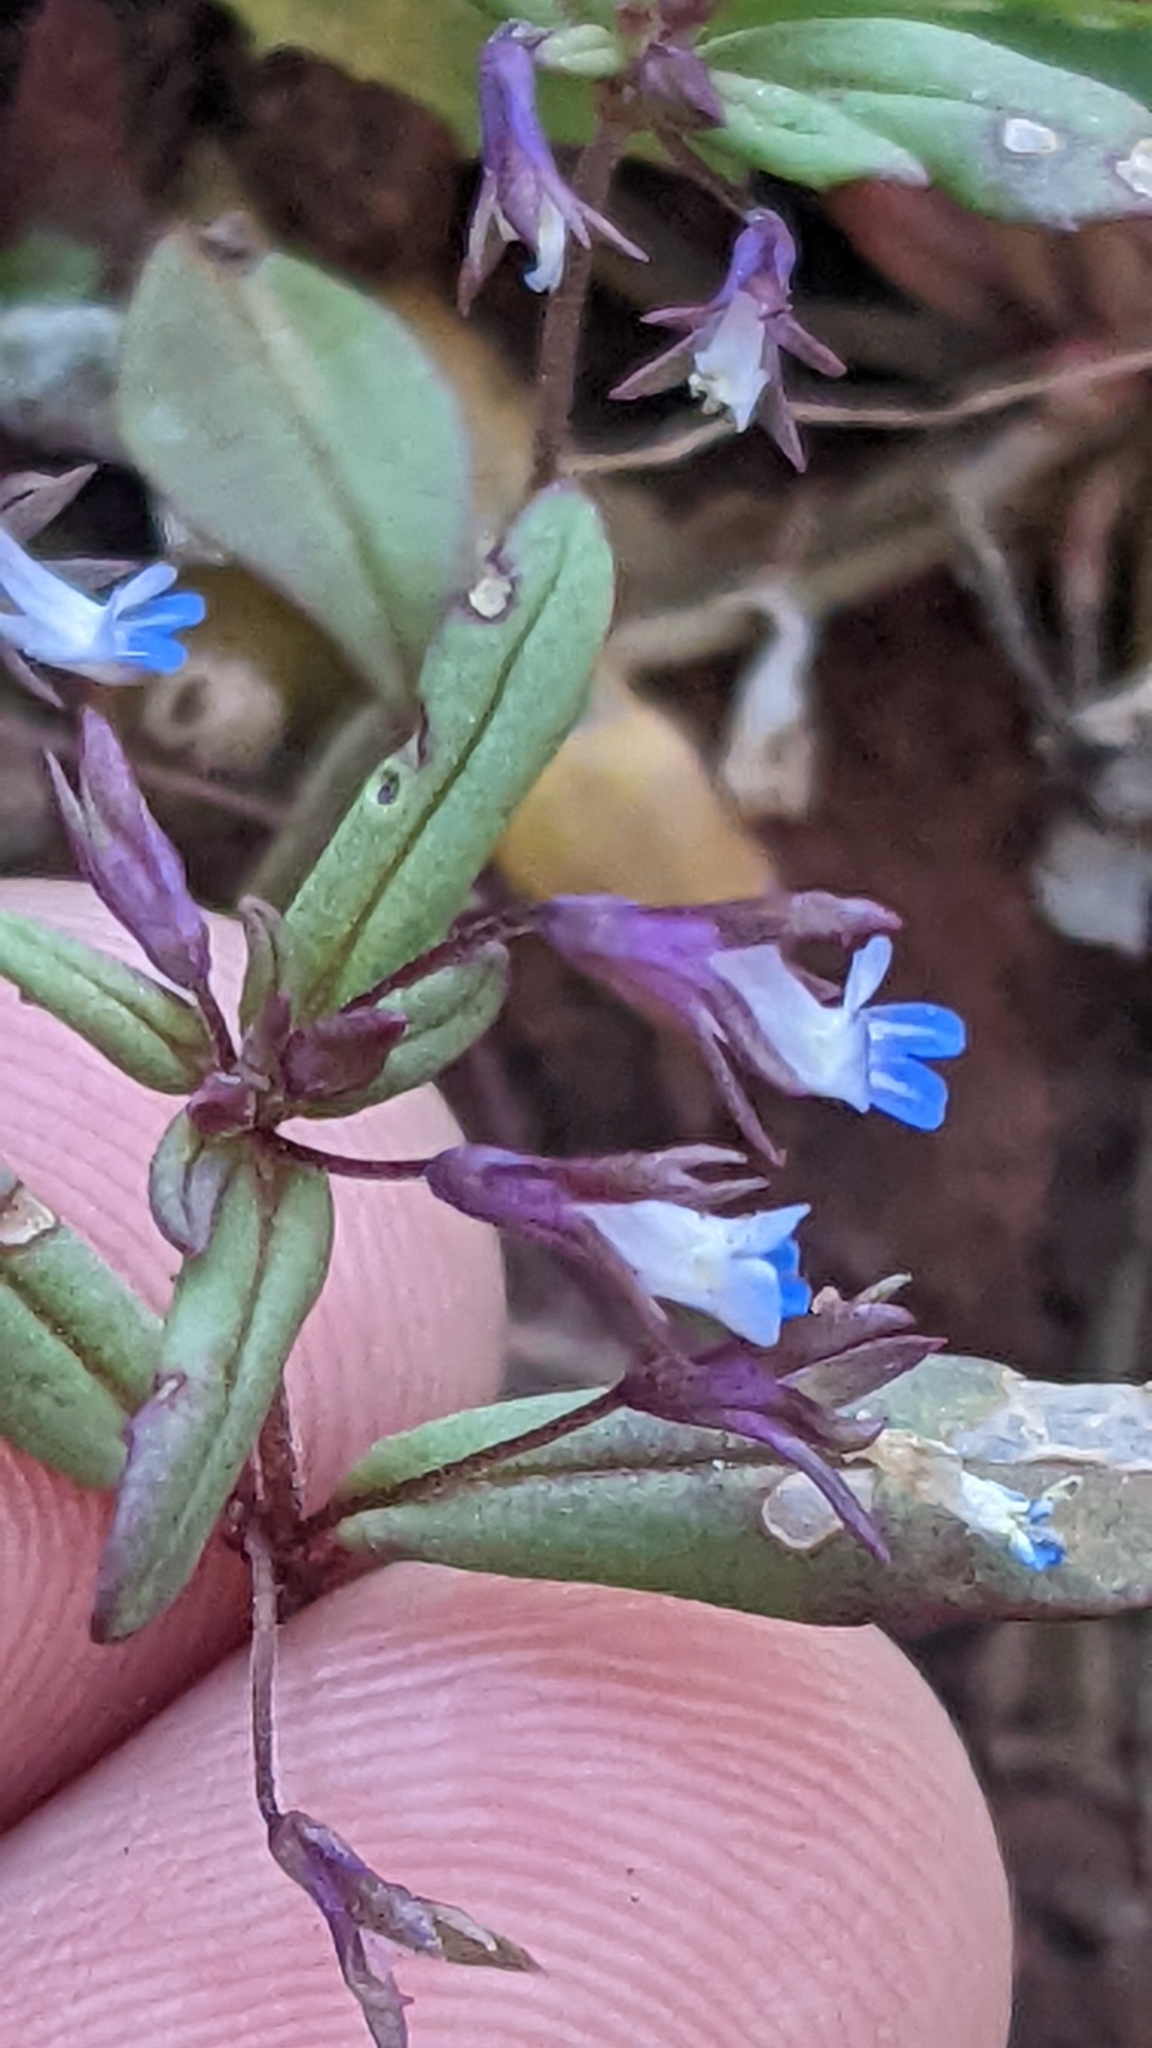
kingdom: Plantae
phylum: Tracheophyta
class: Magnoliopsida
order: Lamiales
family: Plantaginaceae
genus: Collinsia
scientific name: Collinsia parviflora
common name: Blue-lips
